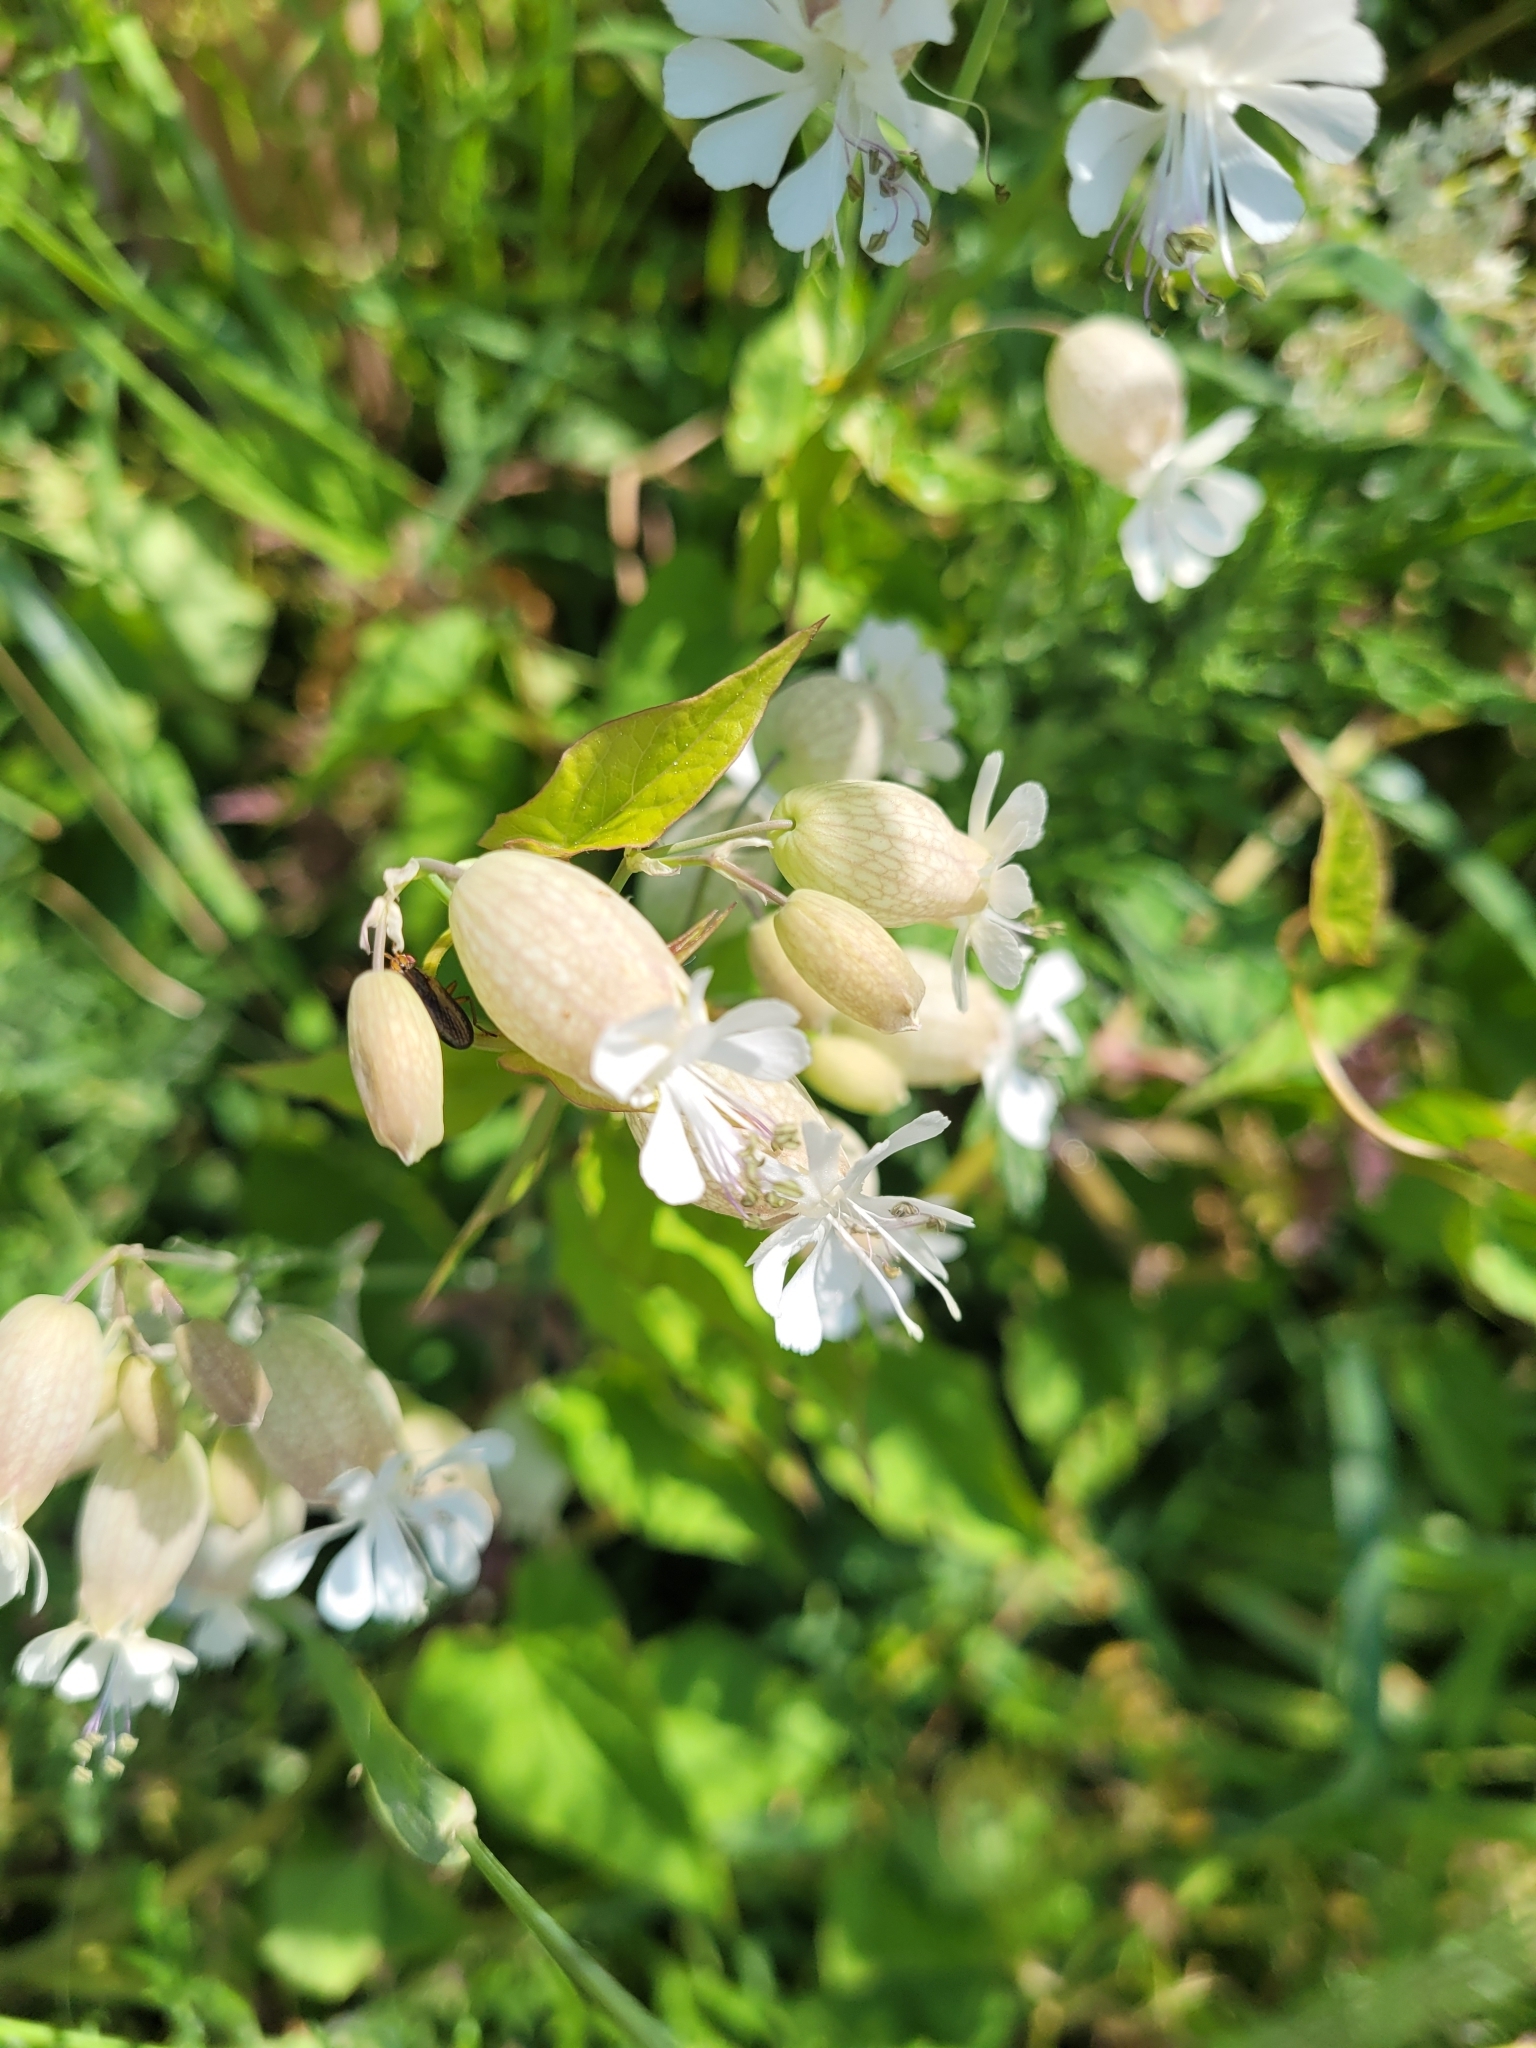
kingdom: Plantae
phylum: Tracheophyta
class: Magnoliopsida
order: Caryophyllales
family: Caryophyllaceae
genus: Silene
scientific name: Silene vulgaris
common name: Bladder campion
